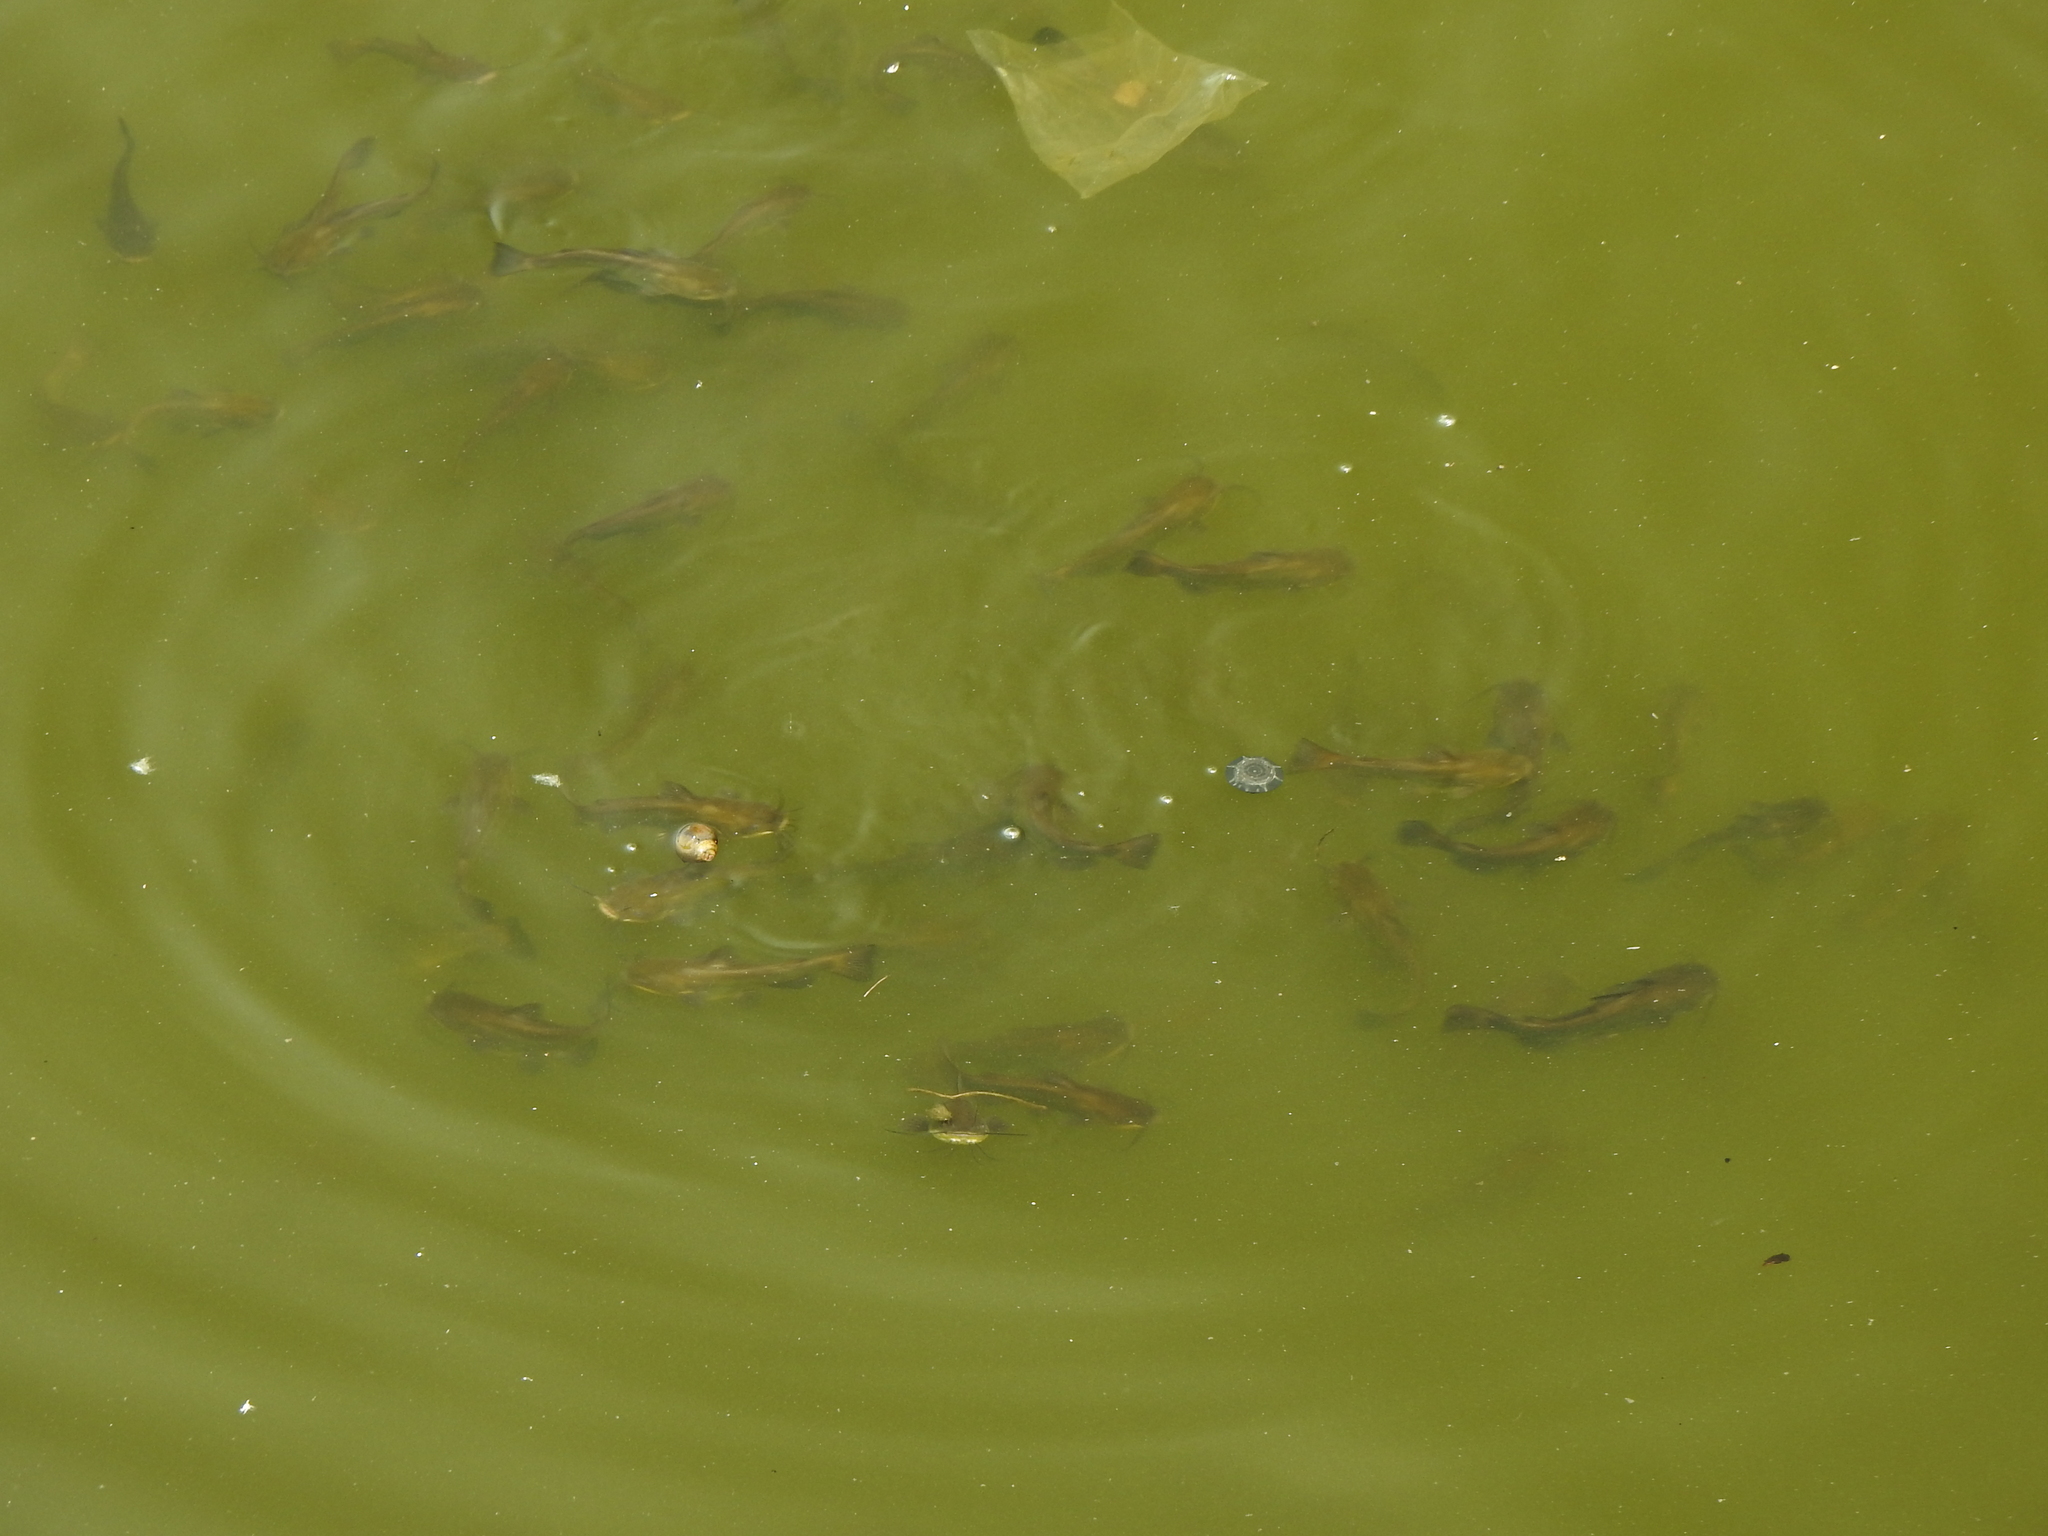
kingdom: Animalia
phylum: Chordata
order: Siluriformes
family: Ictaluridae
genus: Ameiurus
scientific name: Ameiurus melas
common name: Black bullhead
